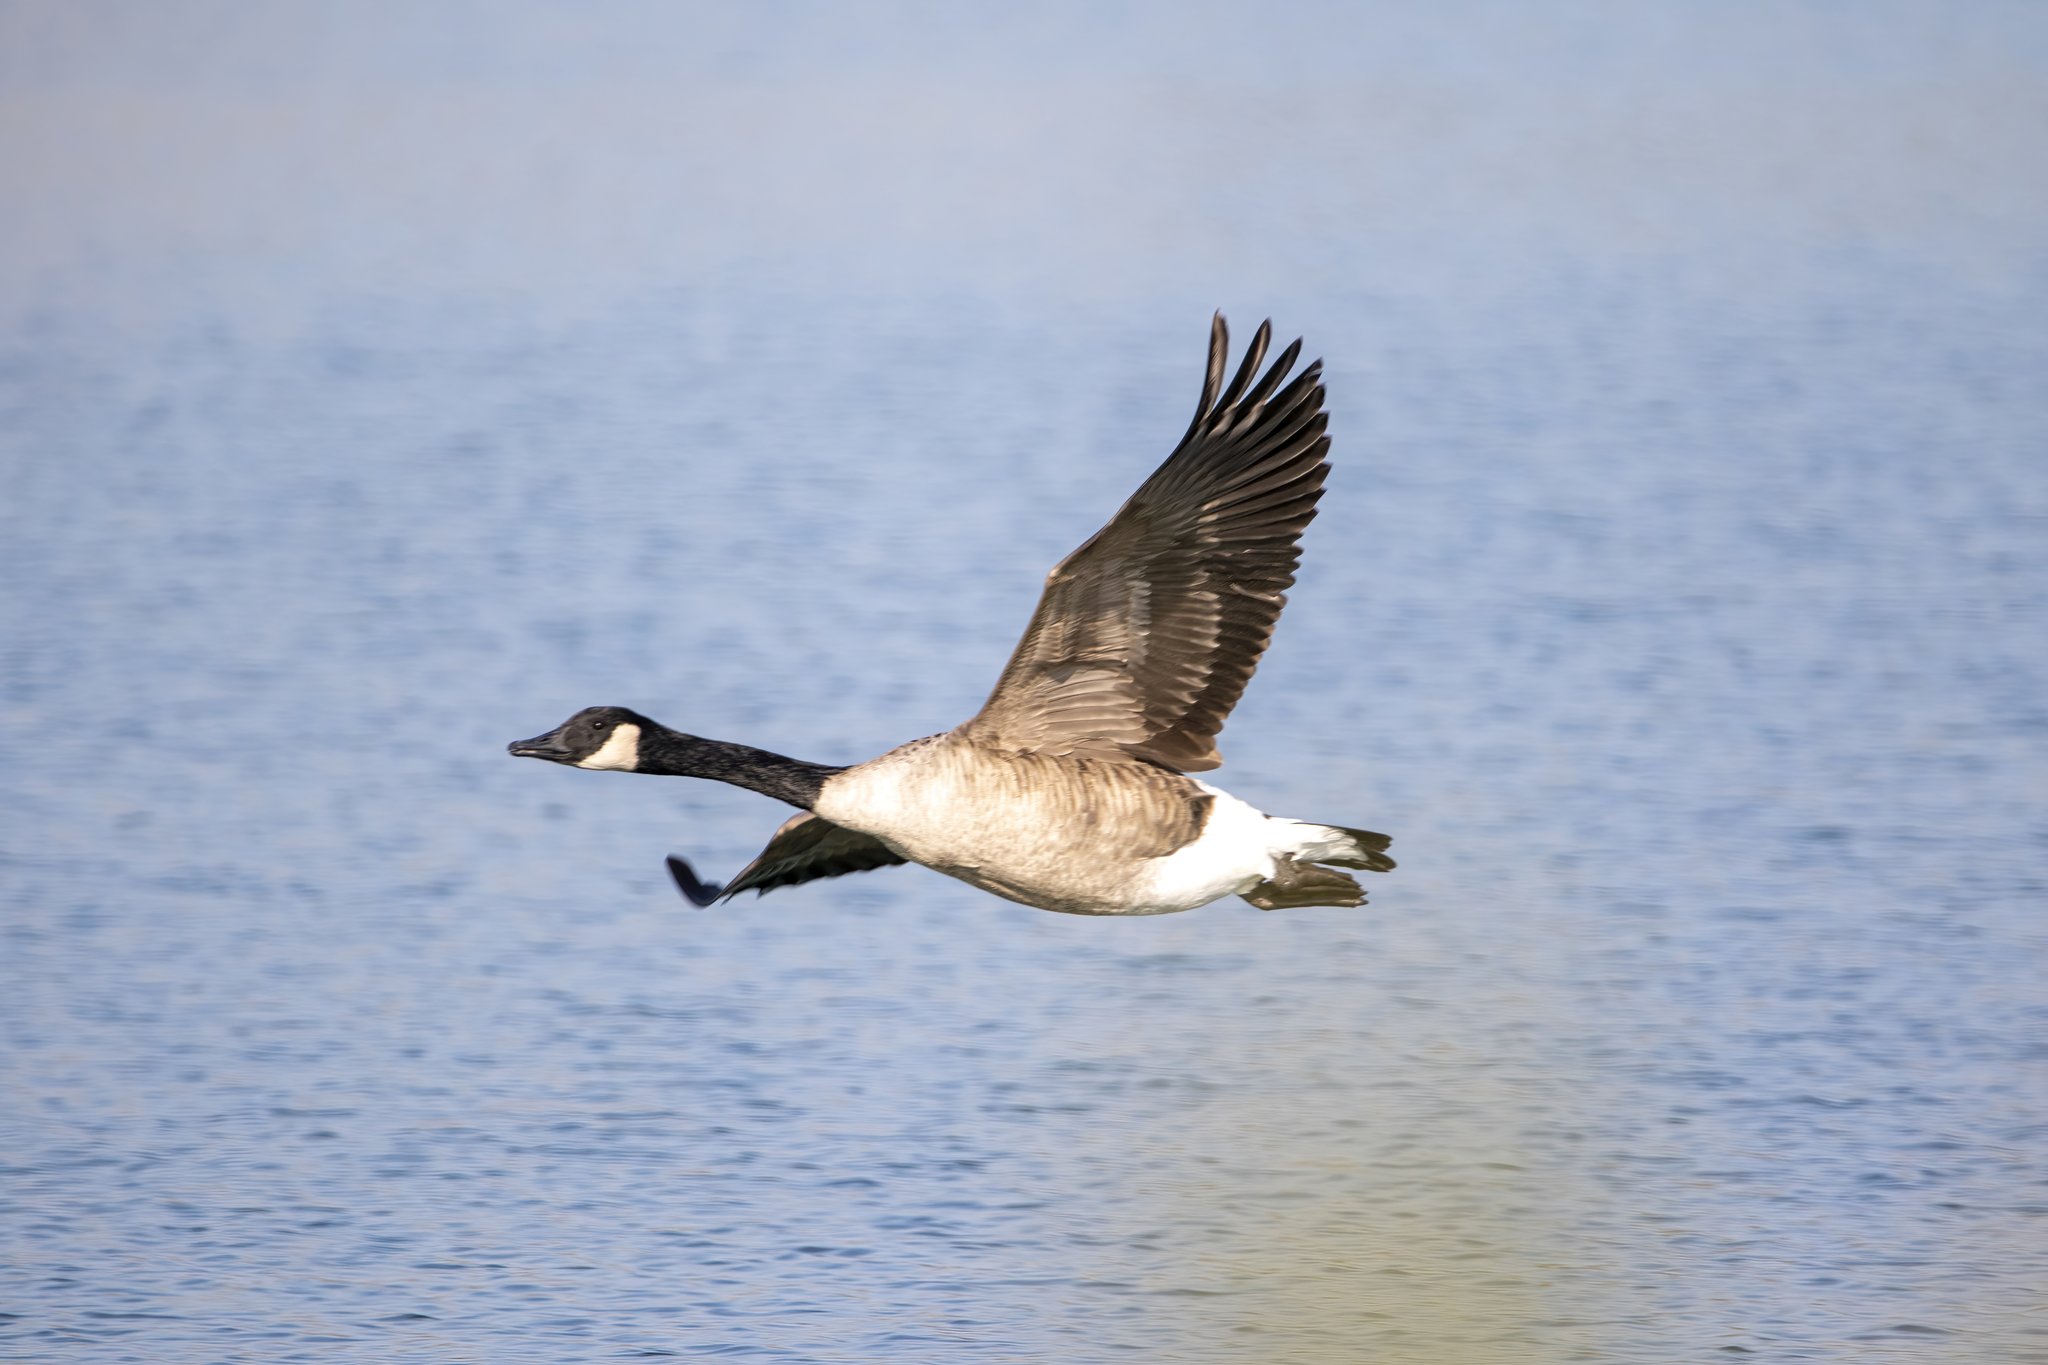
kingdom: Animalia
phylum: Chordata
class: Aves
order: Anseriformes
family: Anatidae
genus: Branta
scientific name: Branta canadensis
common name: Canada goose
